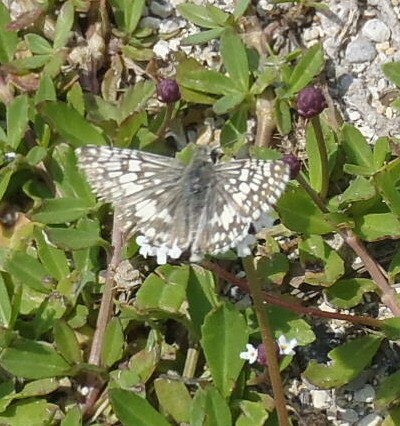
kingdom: Animalia
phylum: Arthropoda
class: Insecta
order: Lepidoptera
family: Hesperiidae
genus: Burnsius
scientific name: Burnsius
